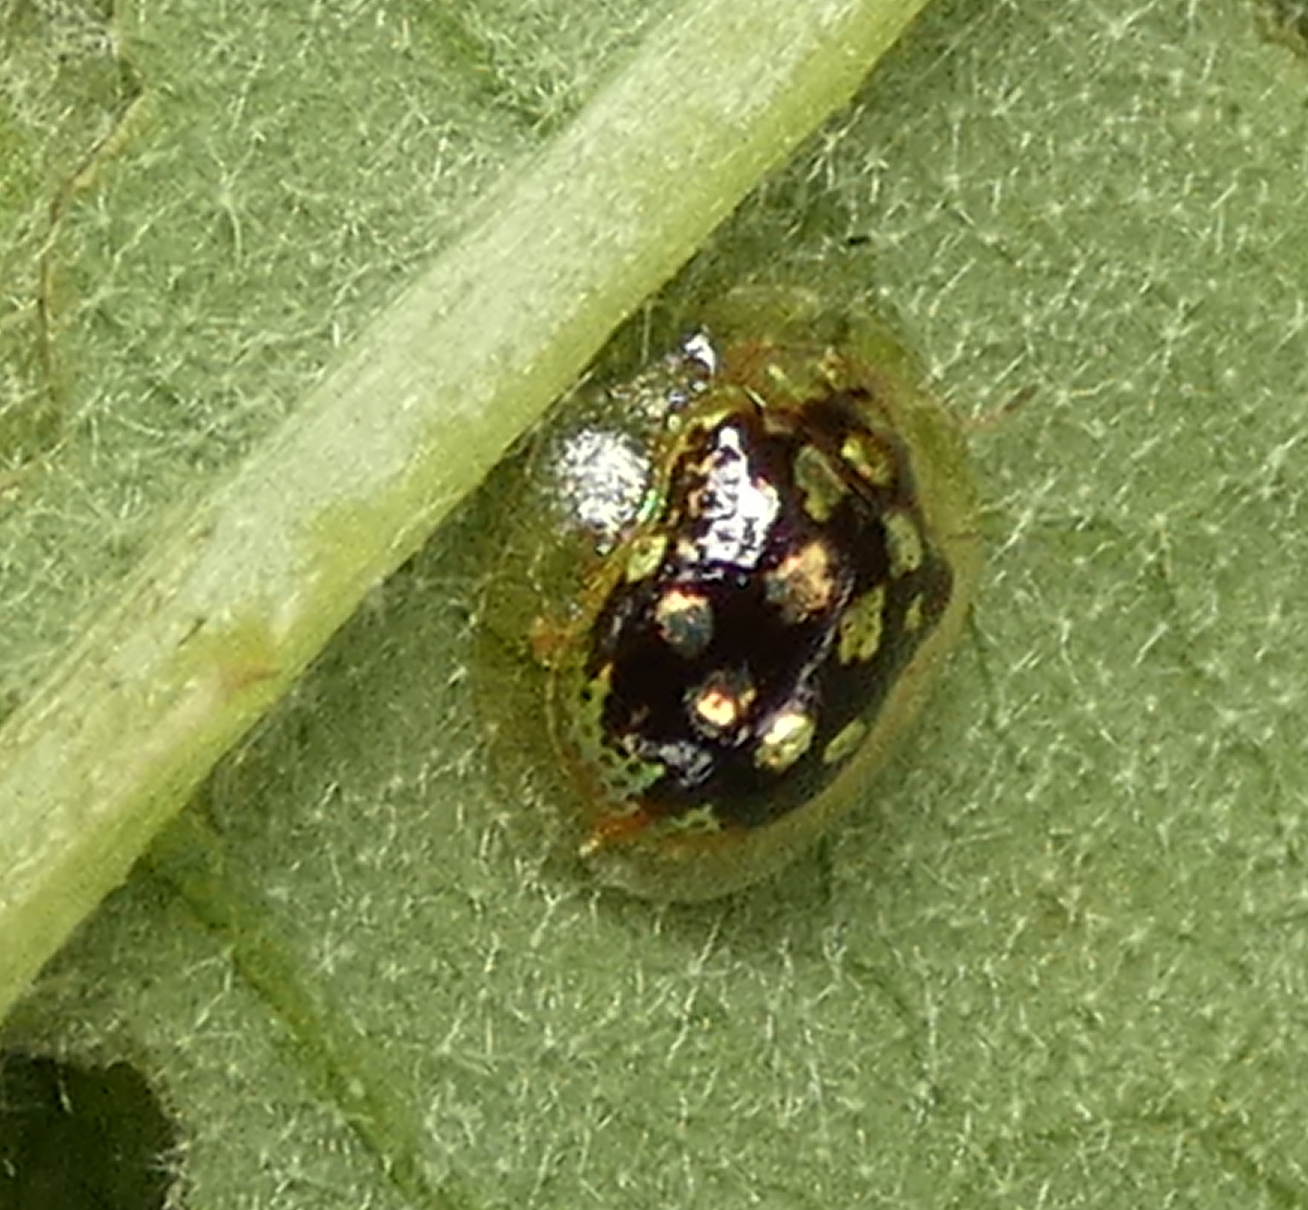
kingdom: Animalia
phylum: Arthropoda
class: Insecta
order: Coleoptera
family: Chrysomelidae
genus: Plagiometriona
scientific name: Plagiometriona microcera
